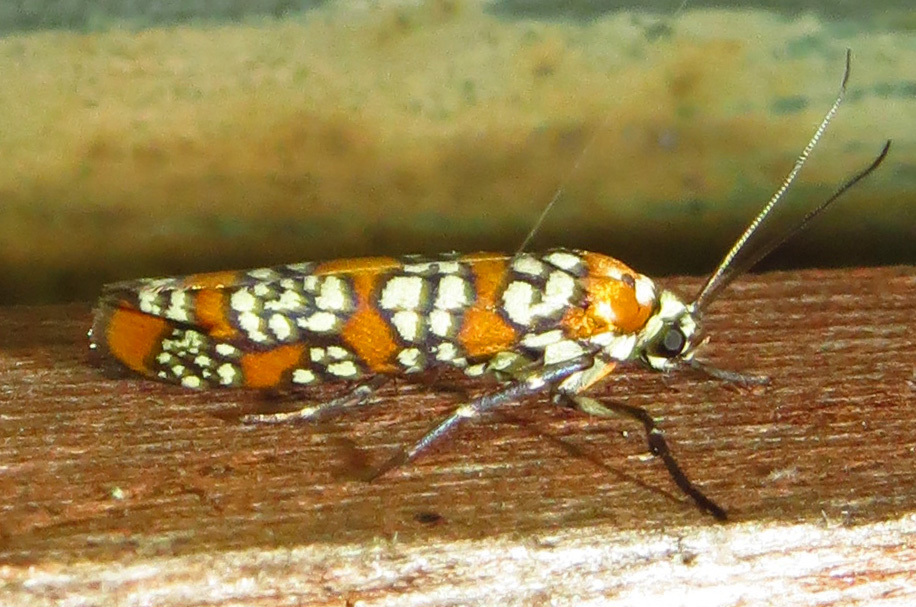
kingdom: Animalia
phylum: Arthropoda
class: Insecta
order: Lepidoptera
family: Attevidae
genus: Atteva
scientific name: Atteva punctella
